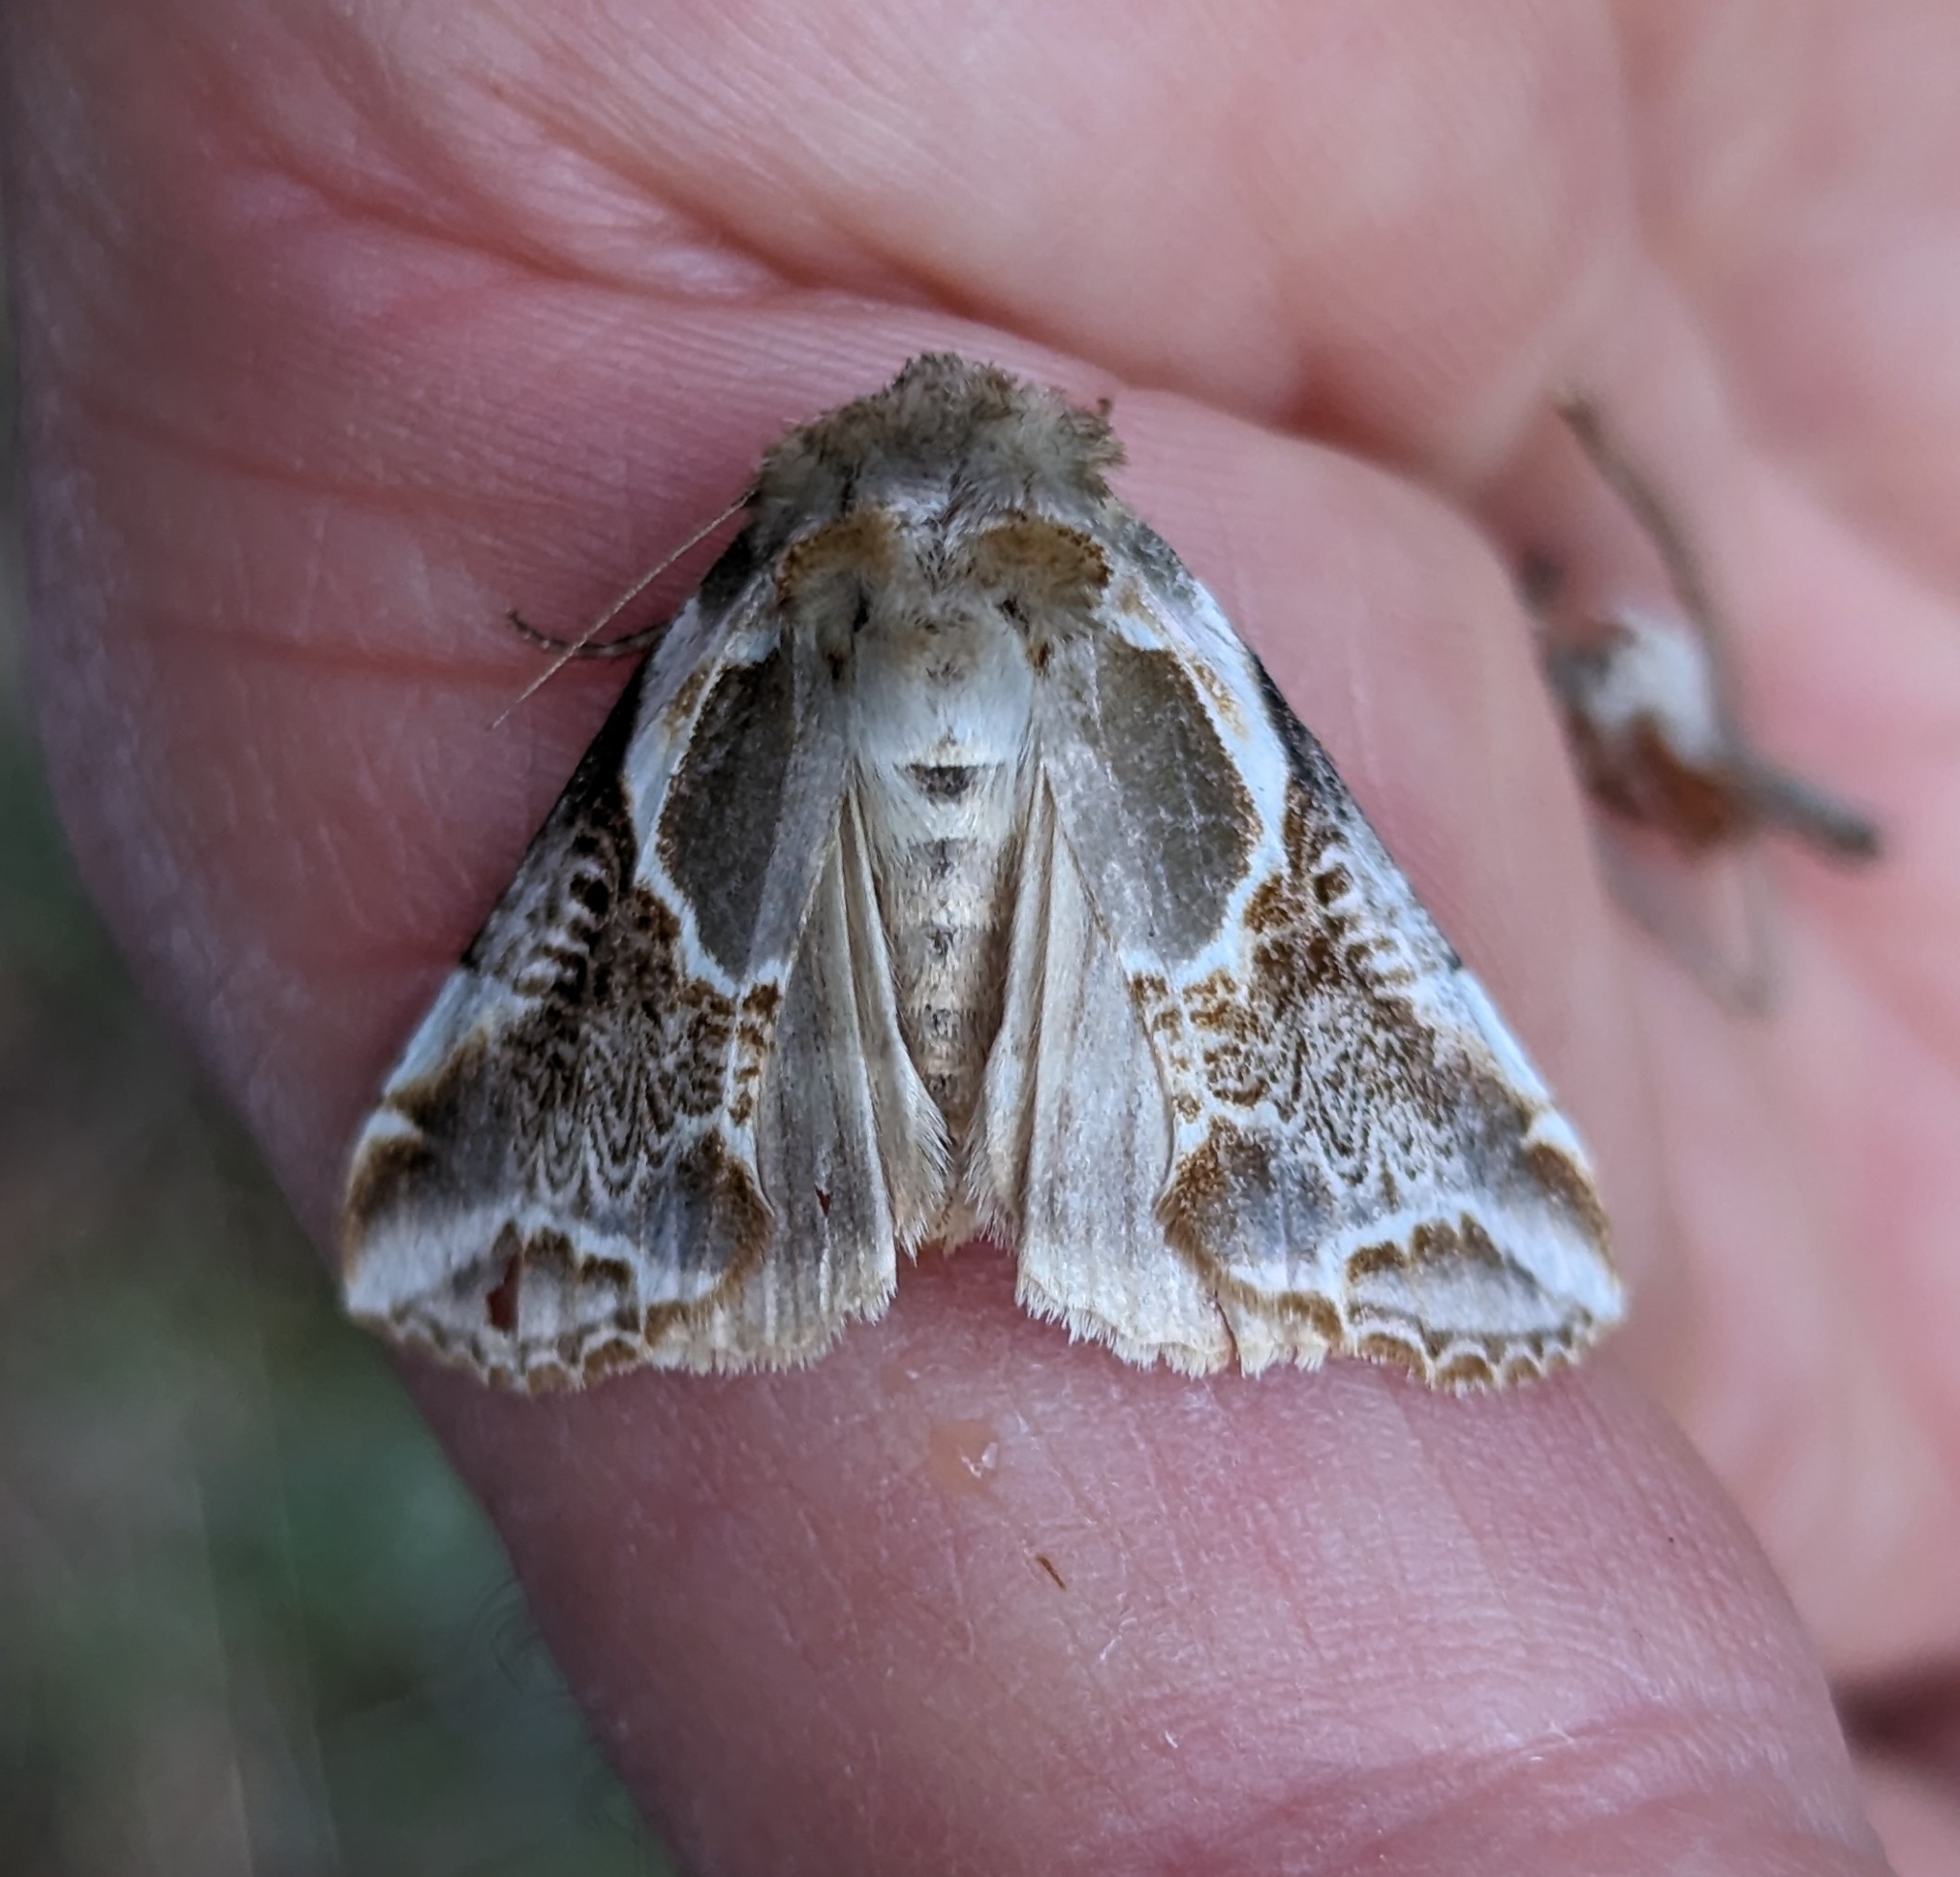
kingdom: Animalia
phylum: Arthropoda
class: Insecta
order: Lepidoptera
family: Drepanidae
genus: Habrosyne
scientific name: Habrosyne scripta
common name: Lettered habrosyne moth
